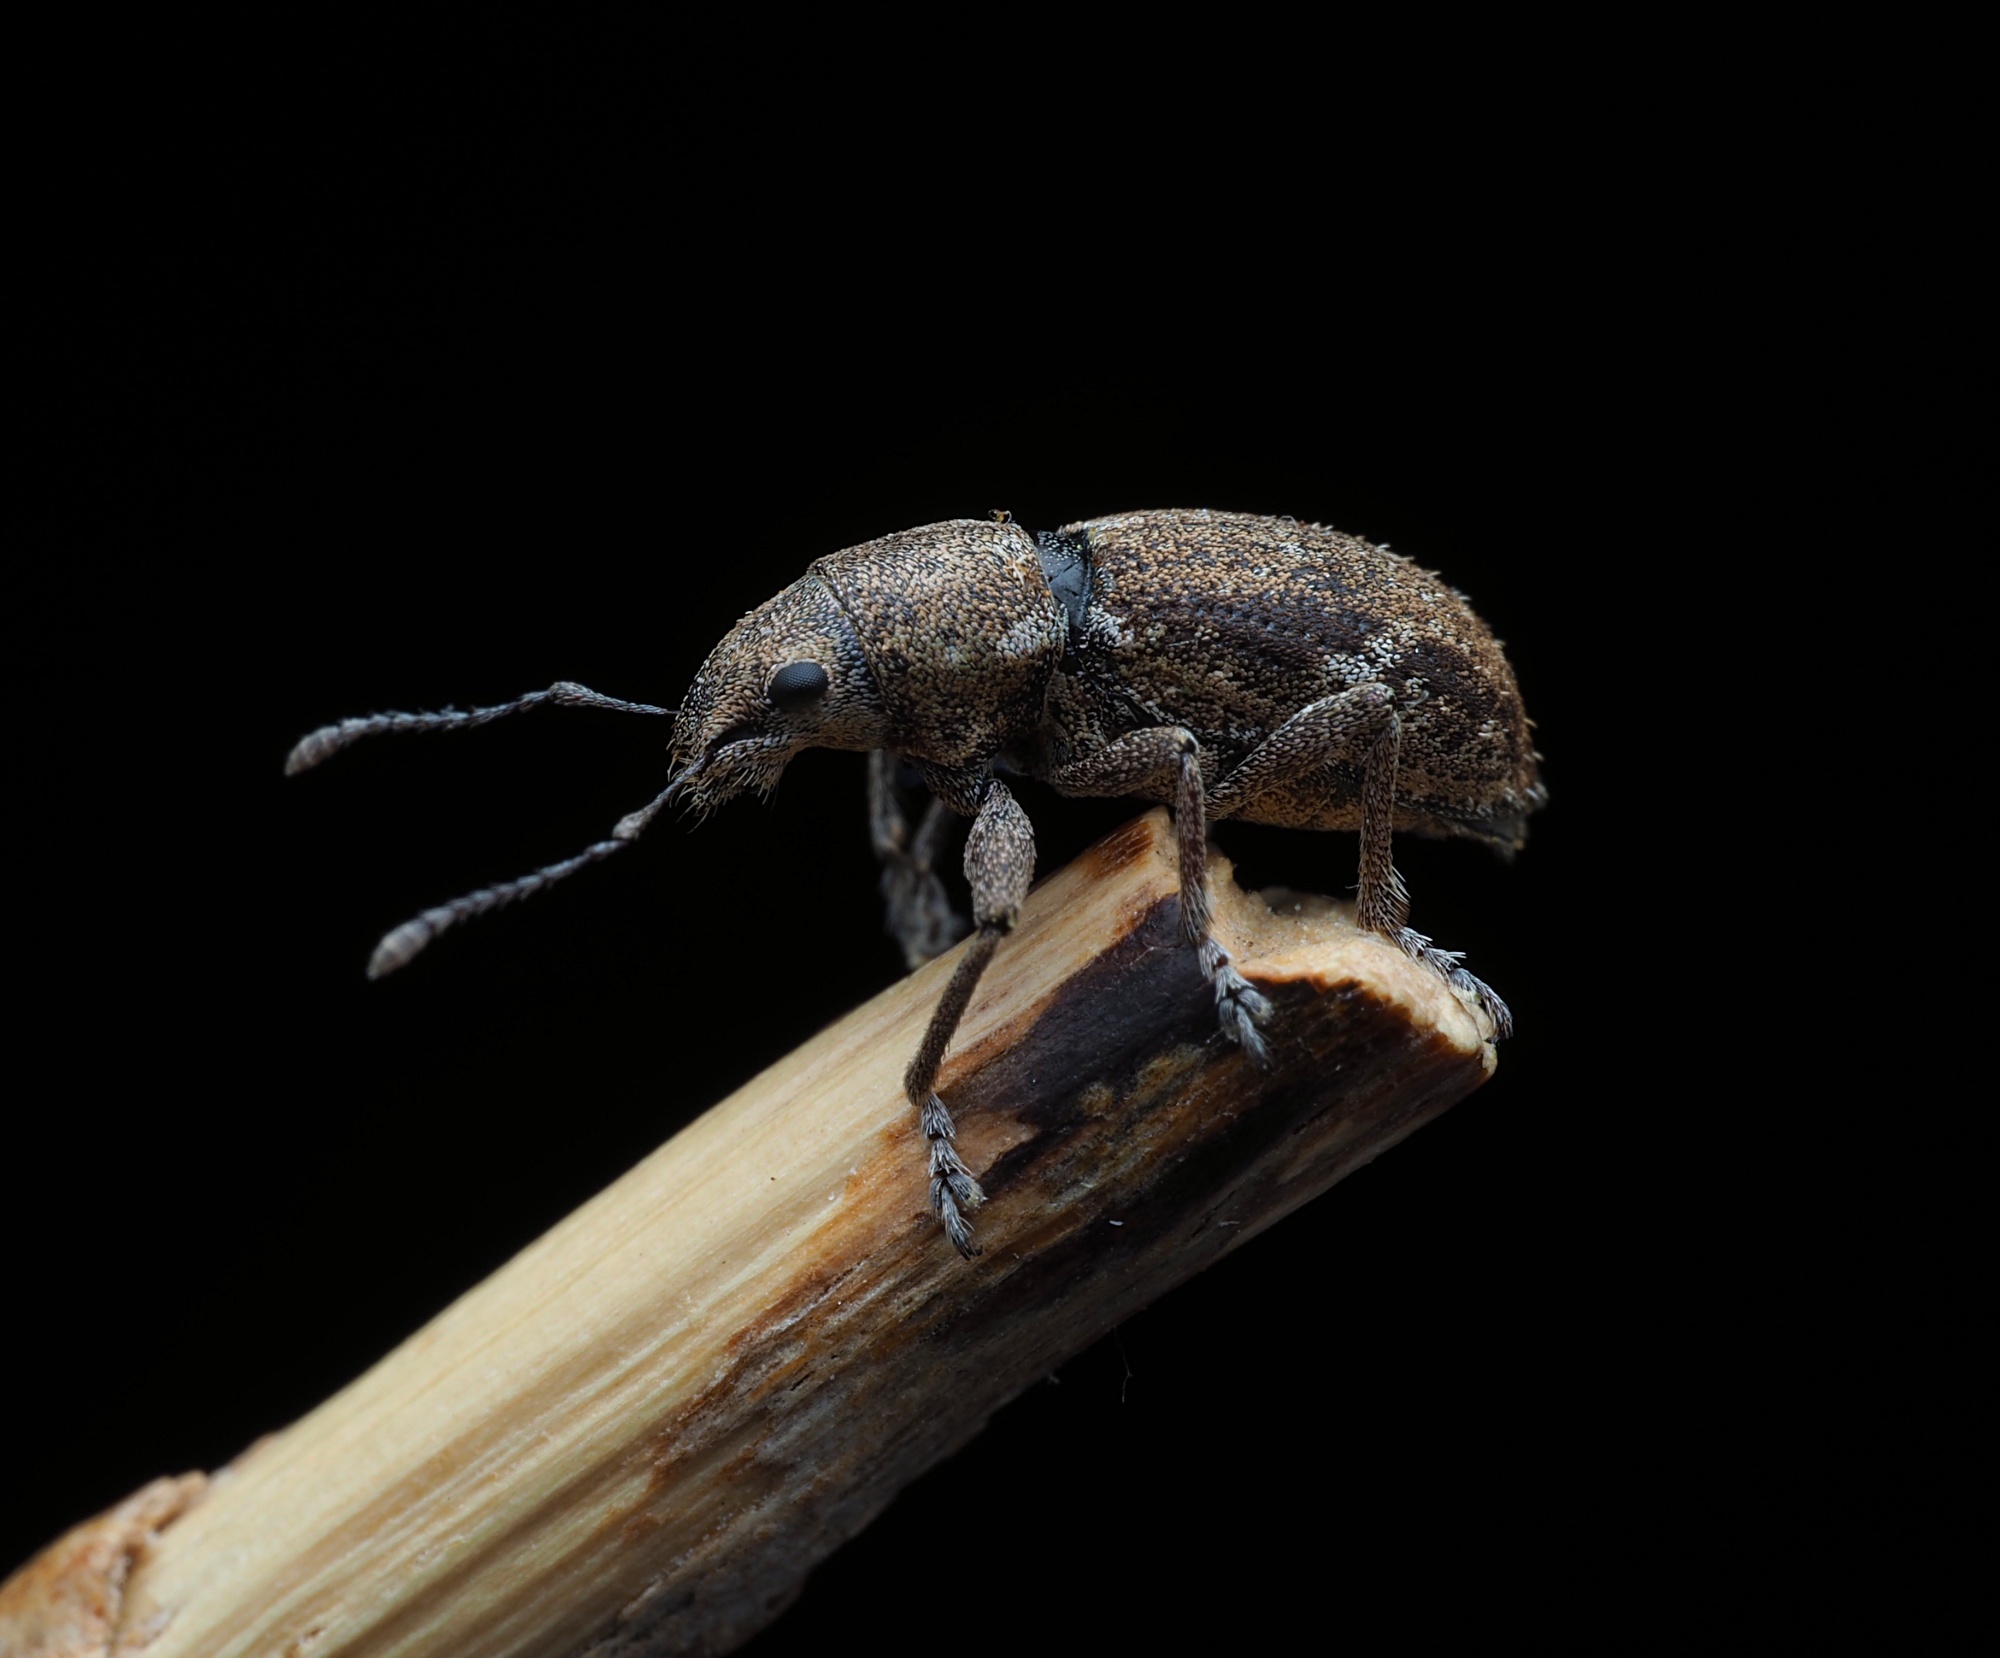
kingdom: Animalia
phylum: Arthropoda
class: Insecta
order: Coleoptera
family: Curculionidae
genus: Naupactus
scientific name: Naupactus cervinus
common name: Fuller rose beetle
